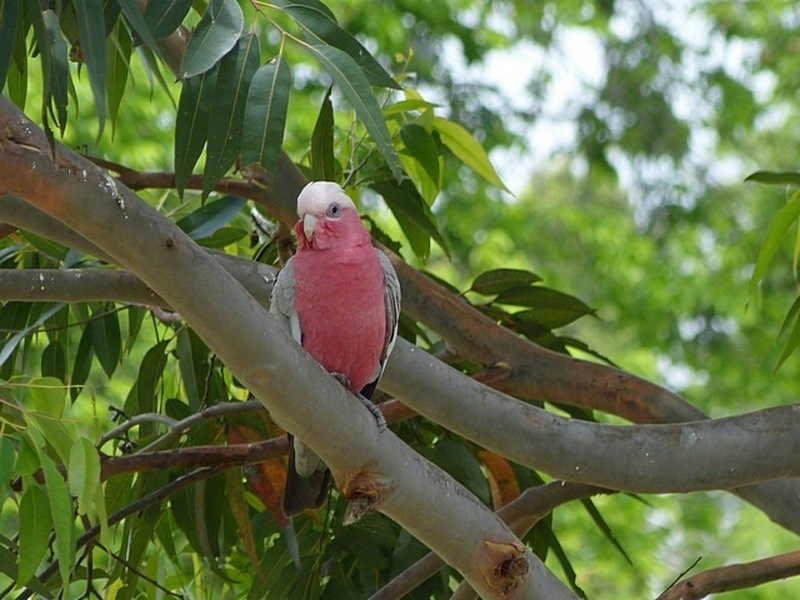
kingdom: Animalia
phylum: Chordata
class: Aves
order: Psittaciformes
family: Psittacidae
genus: Eolophus
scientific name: Eolophus roseicapilla
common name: Galah
